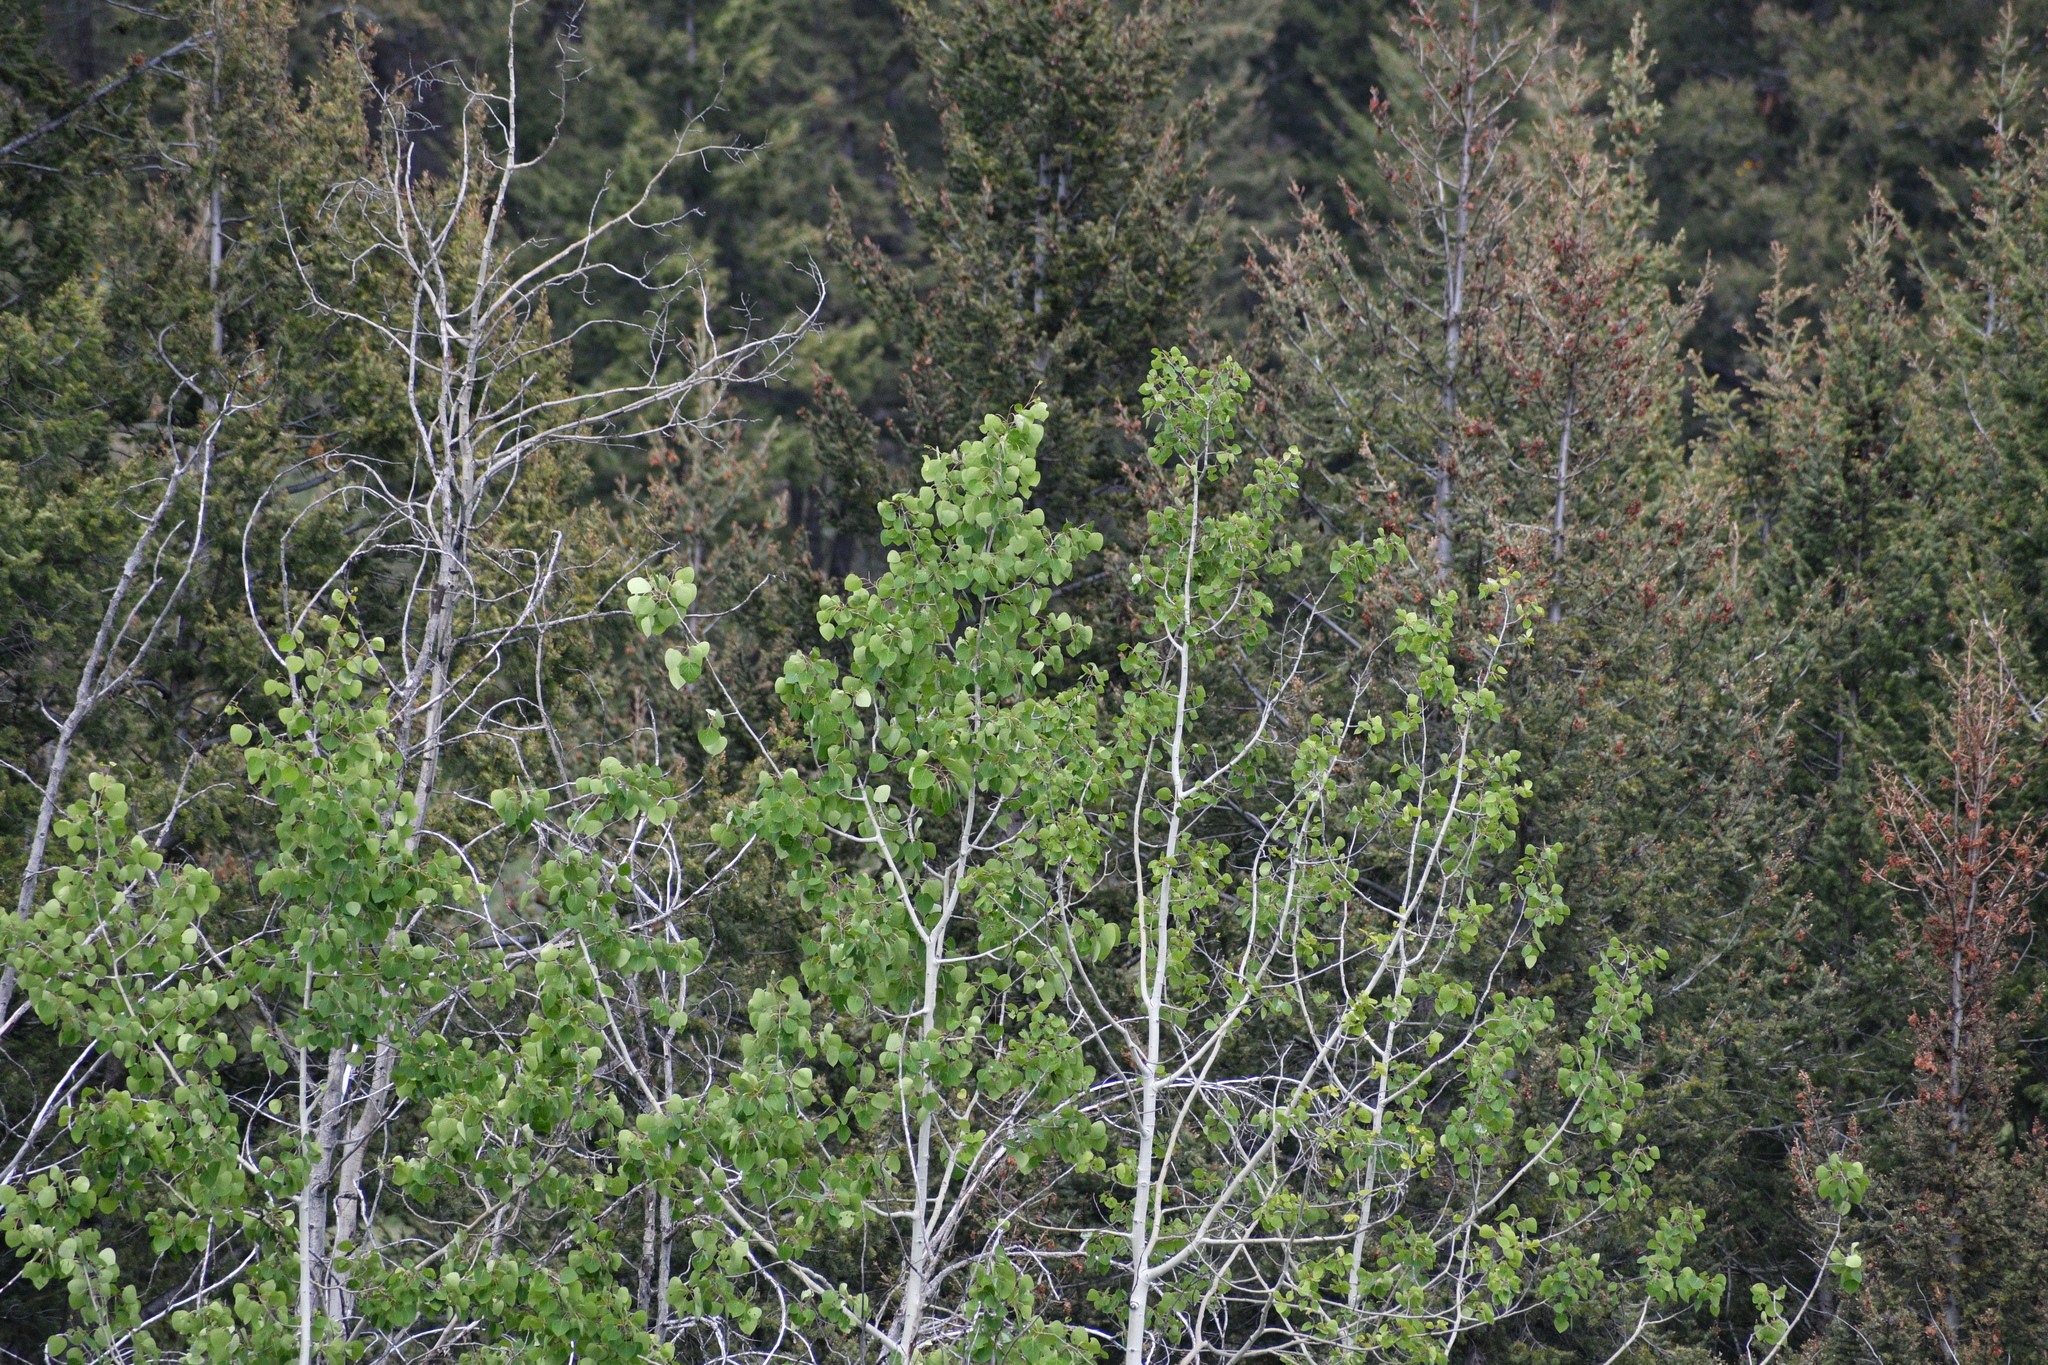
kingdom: Plantae
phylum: Tracheophyta
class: Magnoliopsida
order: Malpighiales
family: Salicaceae
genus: Populus
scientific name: Populus tremuloides
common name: Quaking aspen
